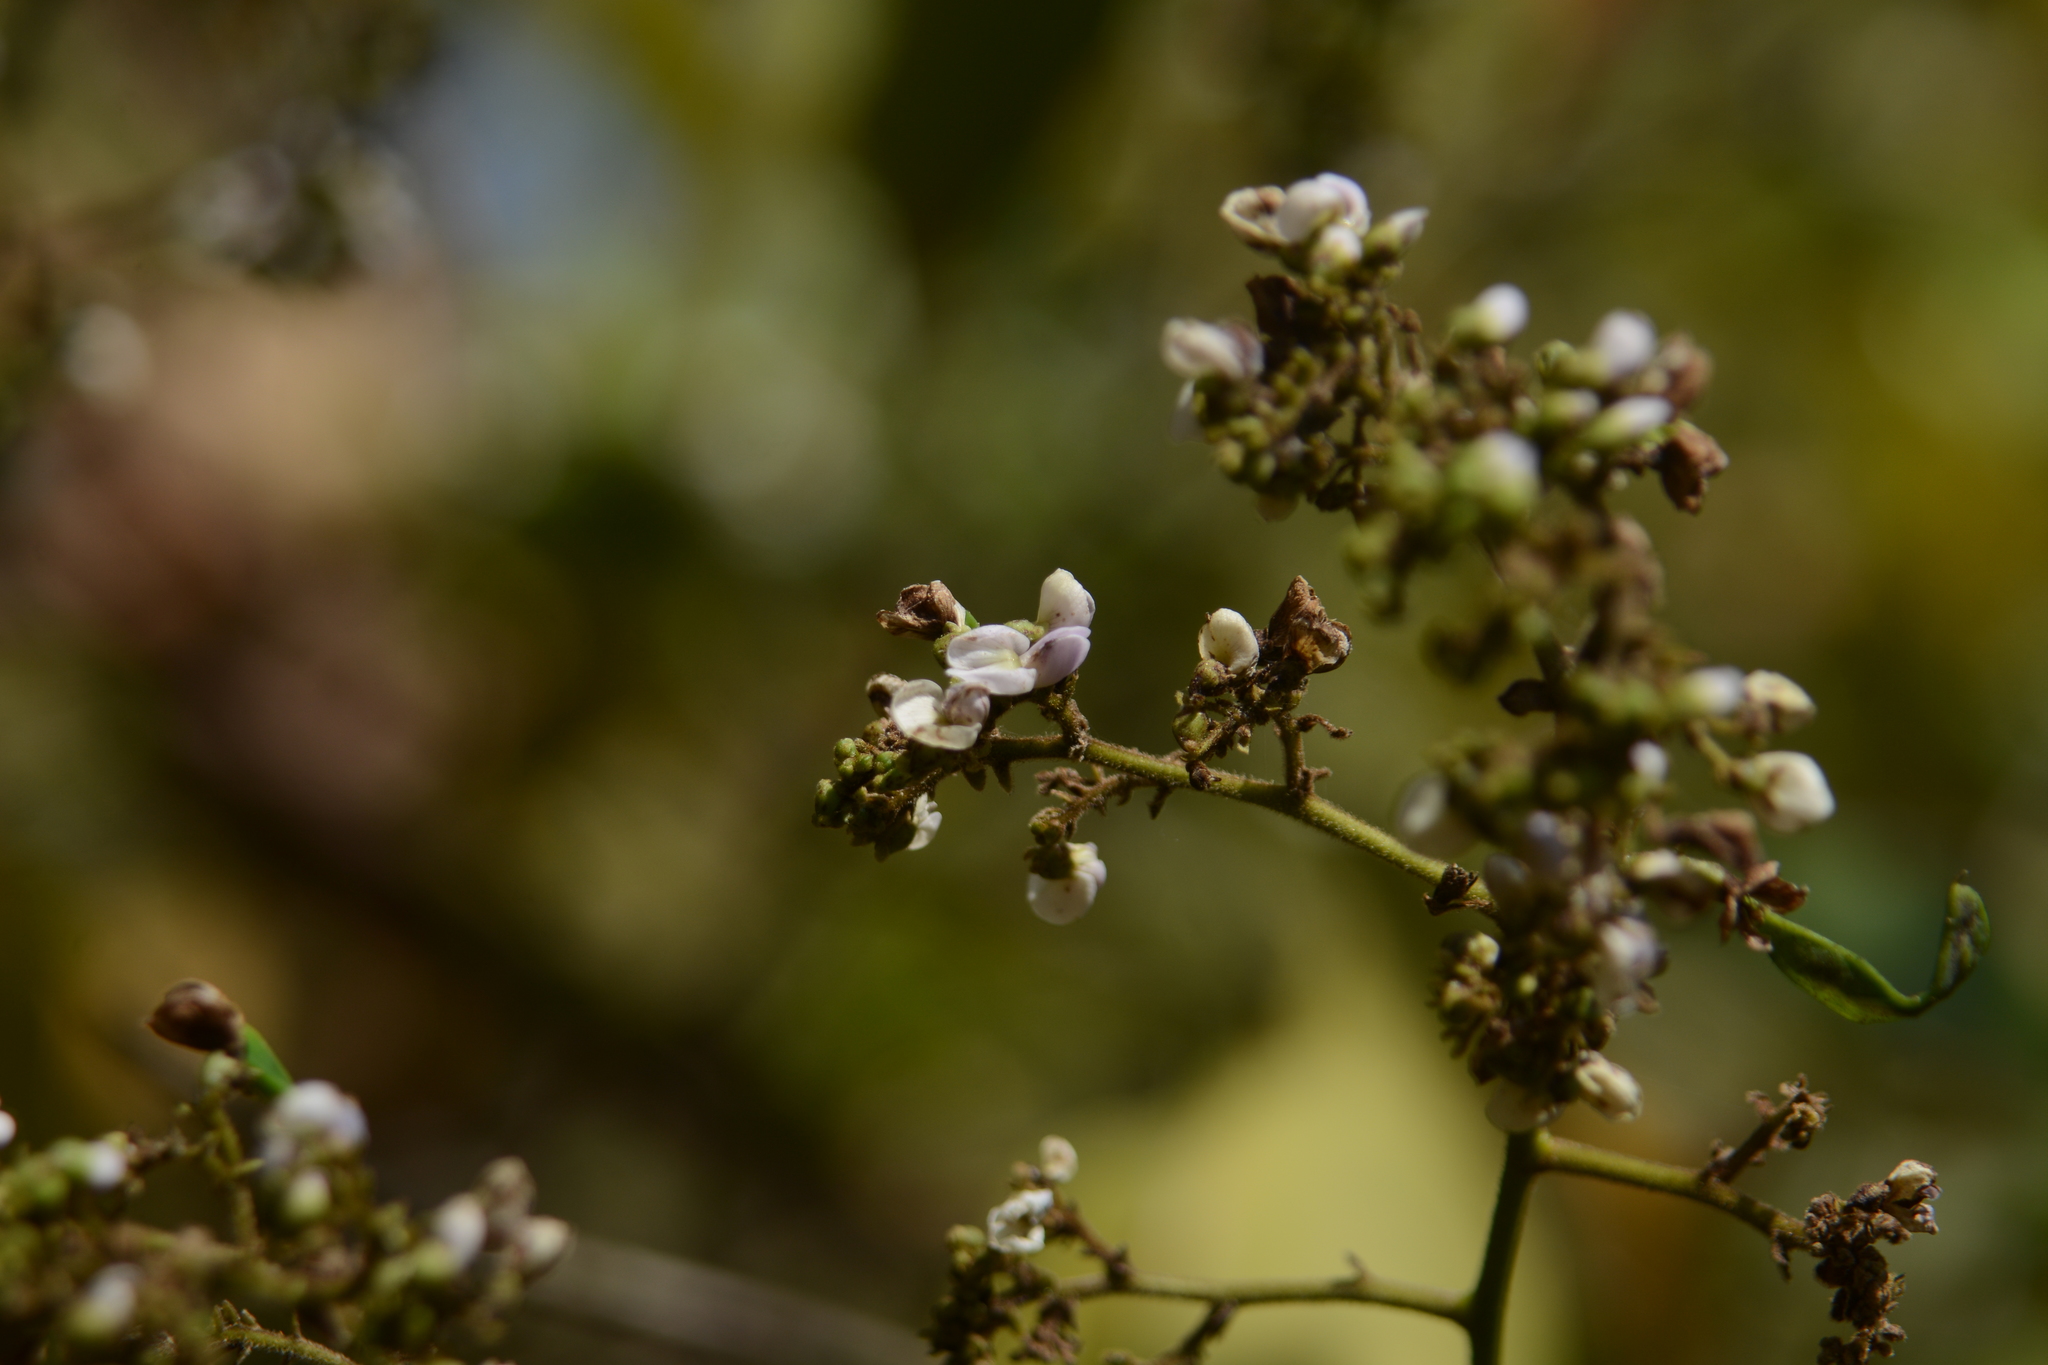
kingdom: Plantae
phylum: Tracheophyta
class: Magnoliopsida
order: Fabales
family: Fabaceae
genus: Dalbergia
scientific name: Dalbergia volubilis
